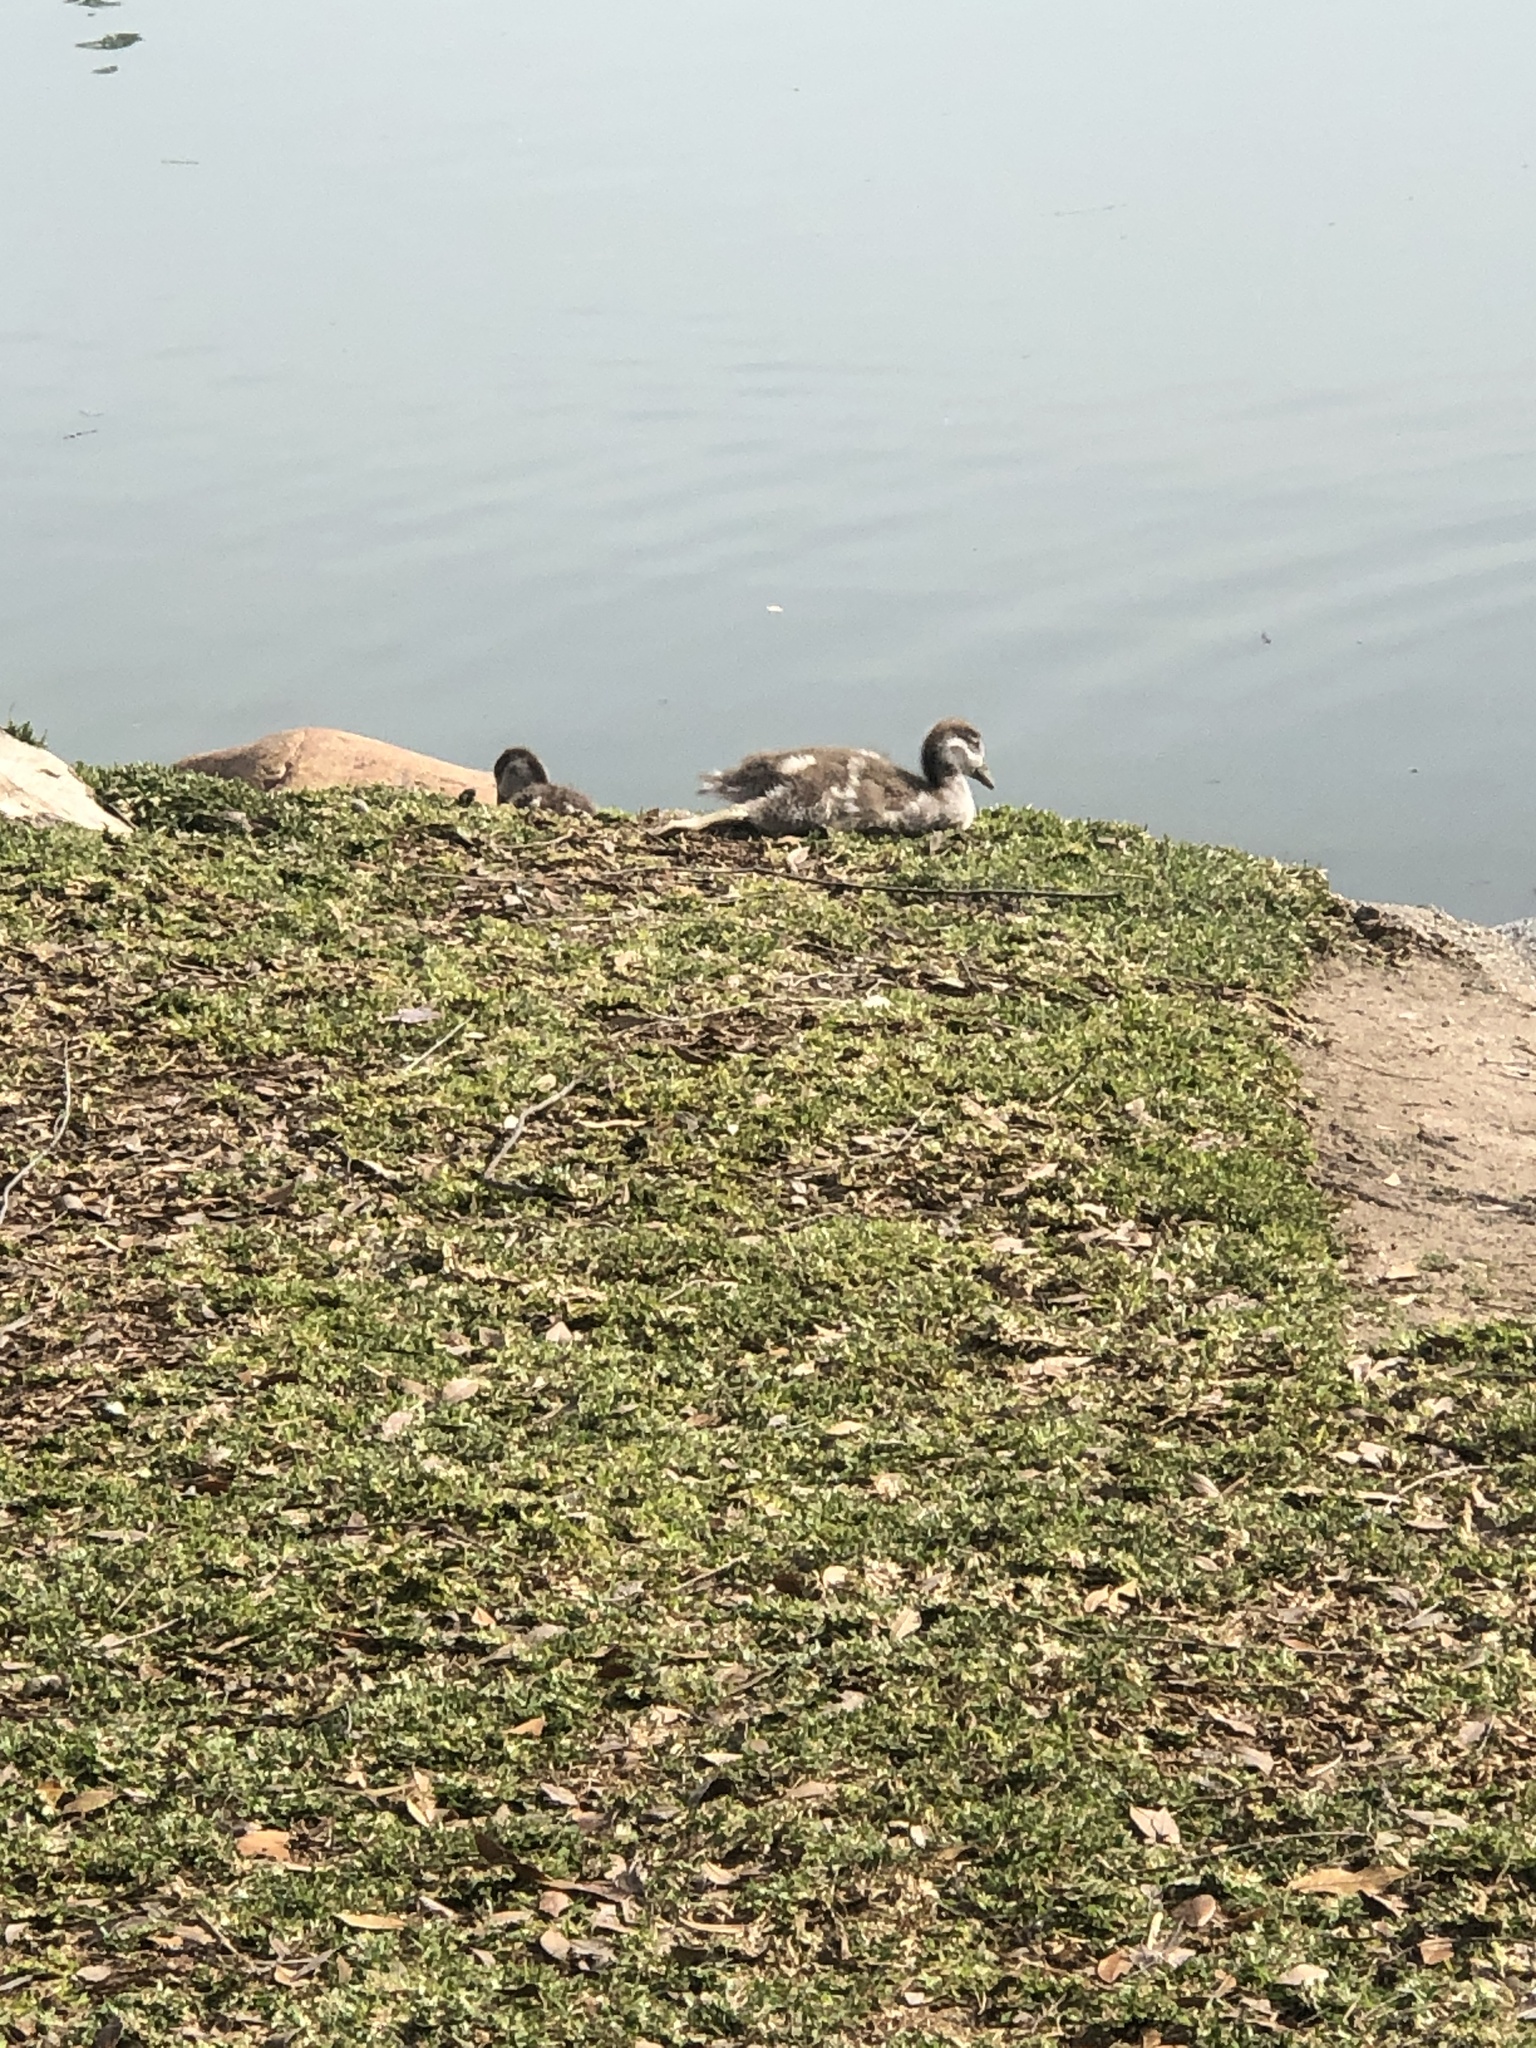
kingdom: Animalia
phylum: Chordata
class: Aves
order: Anseriformes
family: Anatidae
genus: Alopochen
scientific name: Alopochen aegyptiaca
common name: Egyptian goose
